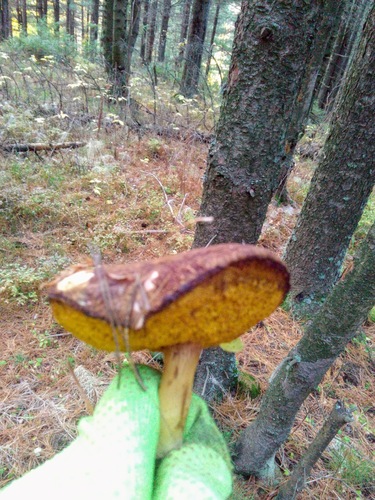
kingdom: Fungi
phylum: Basidiomycota
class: Agaricomycetes
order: Boletales
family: Boletaceae
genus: Xerocomus
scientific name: Xerocomus subtomentosus
